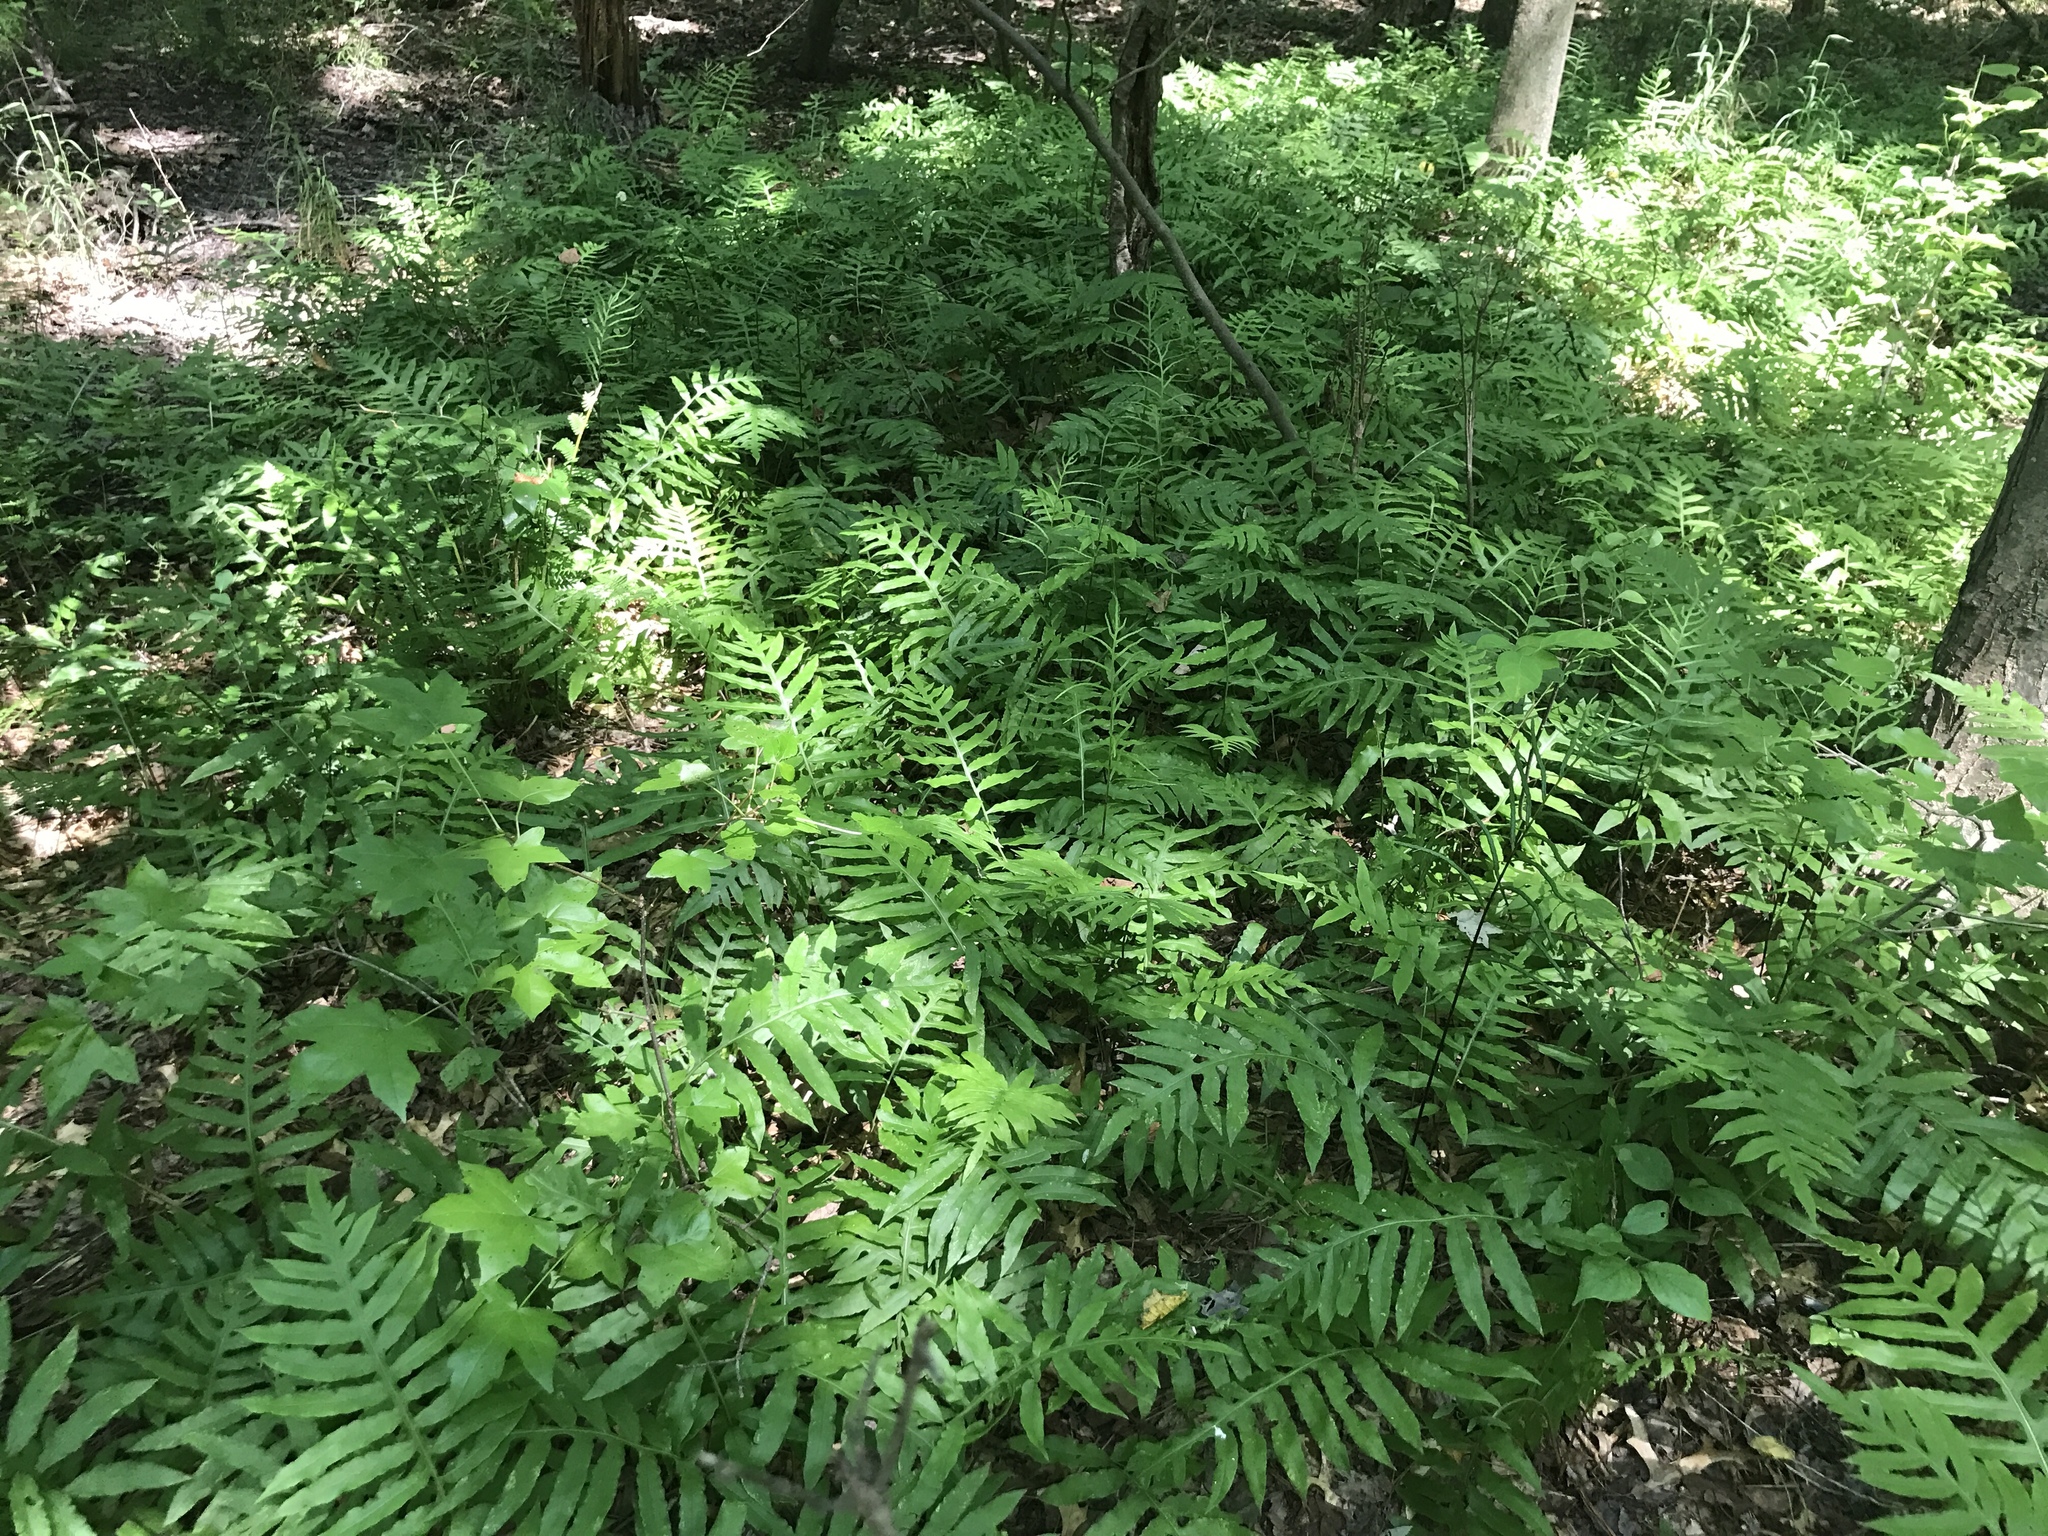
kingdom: Plantae
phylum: Tracheophyta
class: Polypodiopsida
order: Polypodiales
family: Blechnaceae
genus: Lorinseria
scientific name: Lorinseria areolata
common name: Dwarf chain fern
